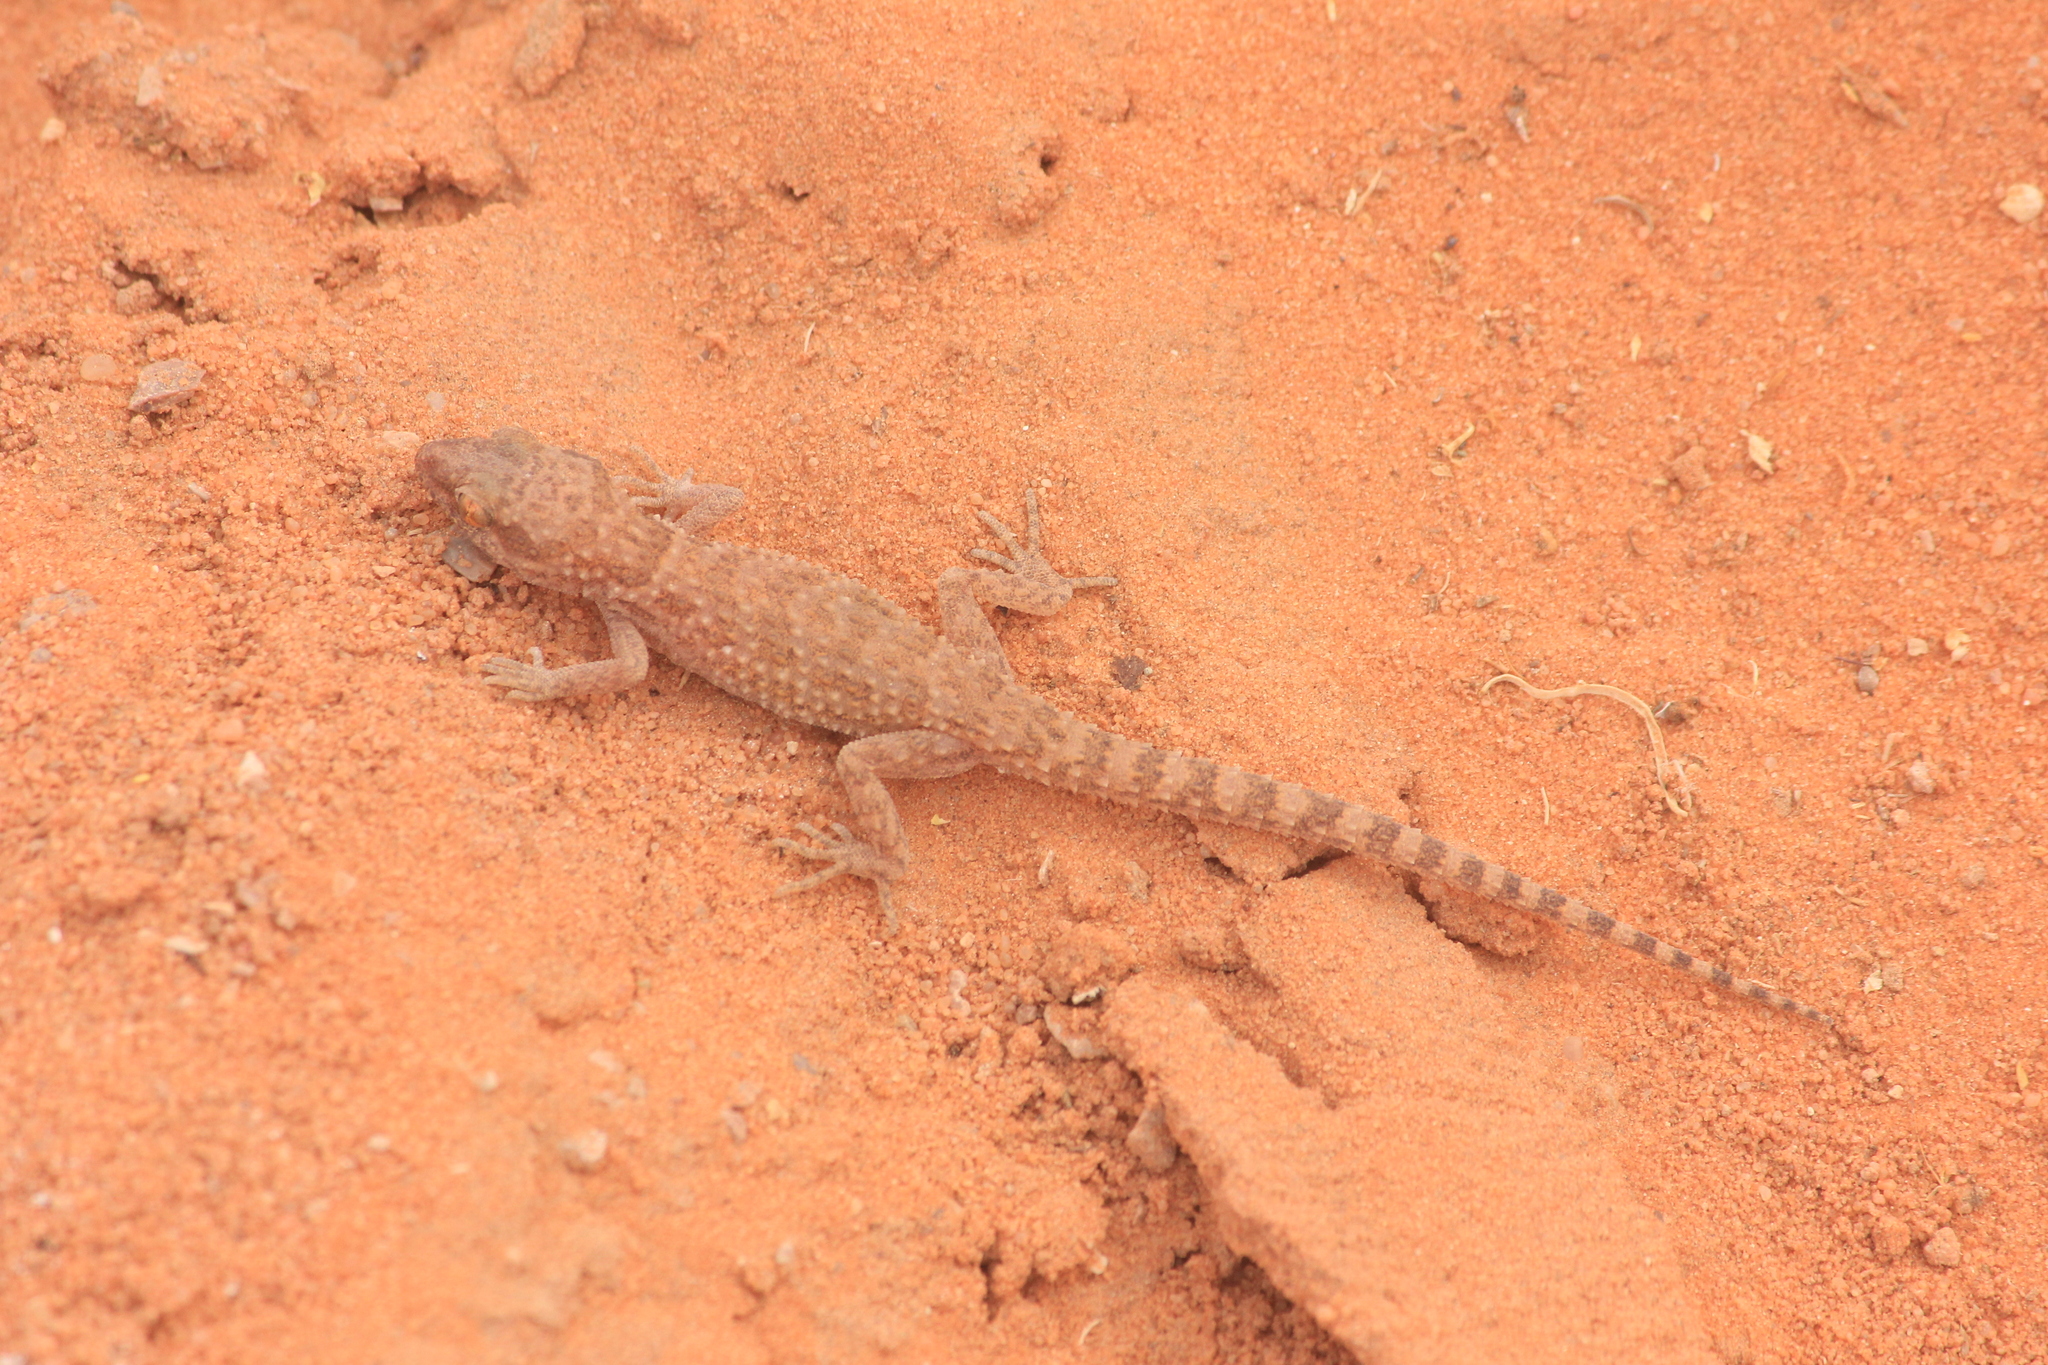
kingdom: Animalia
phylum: Chordata
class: Squamata
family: Gekkonidae
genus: Bunopus
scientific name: Bunopus tuberculatus
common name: Southern tuberculated gecko
